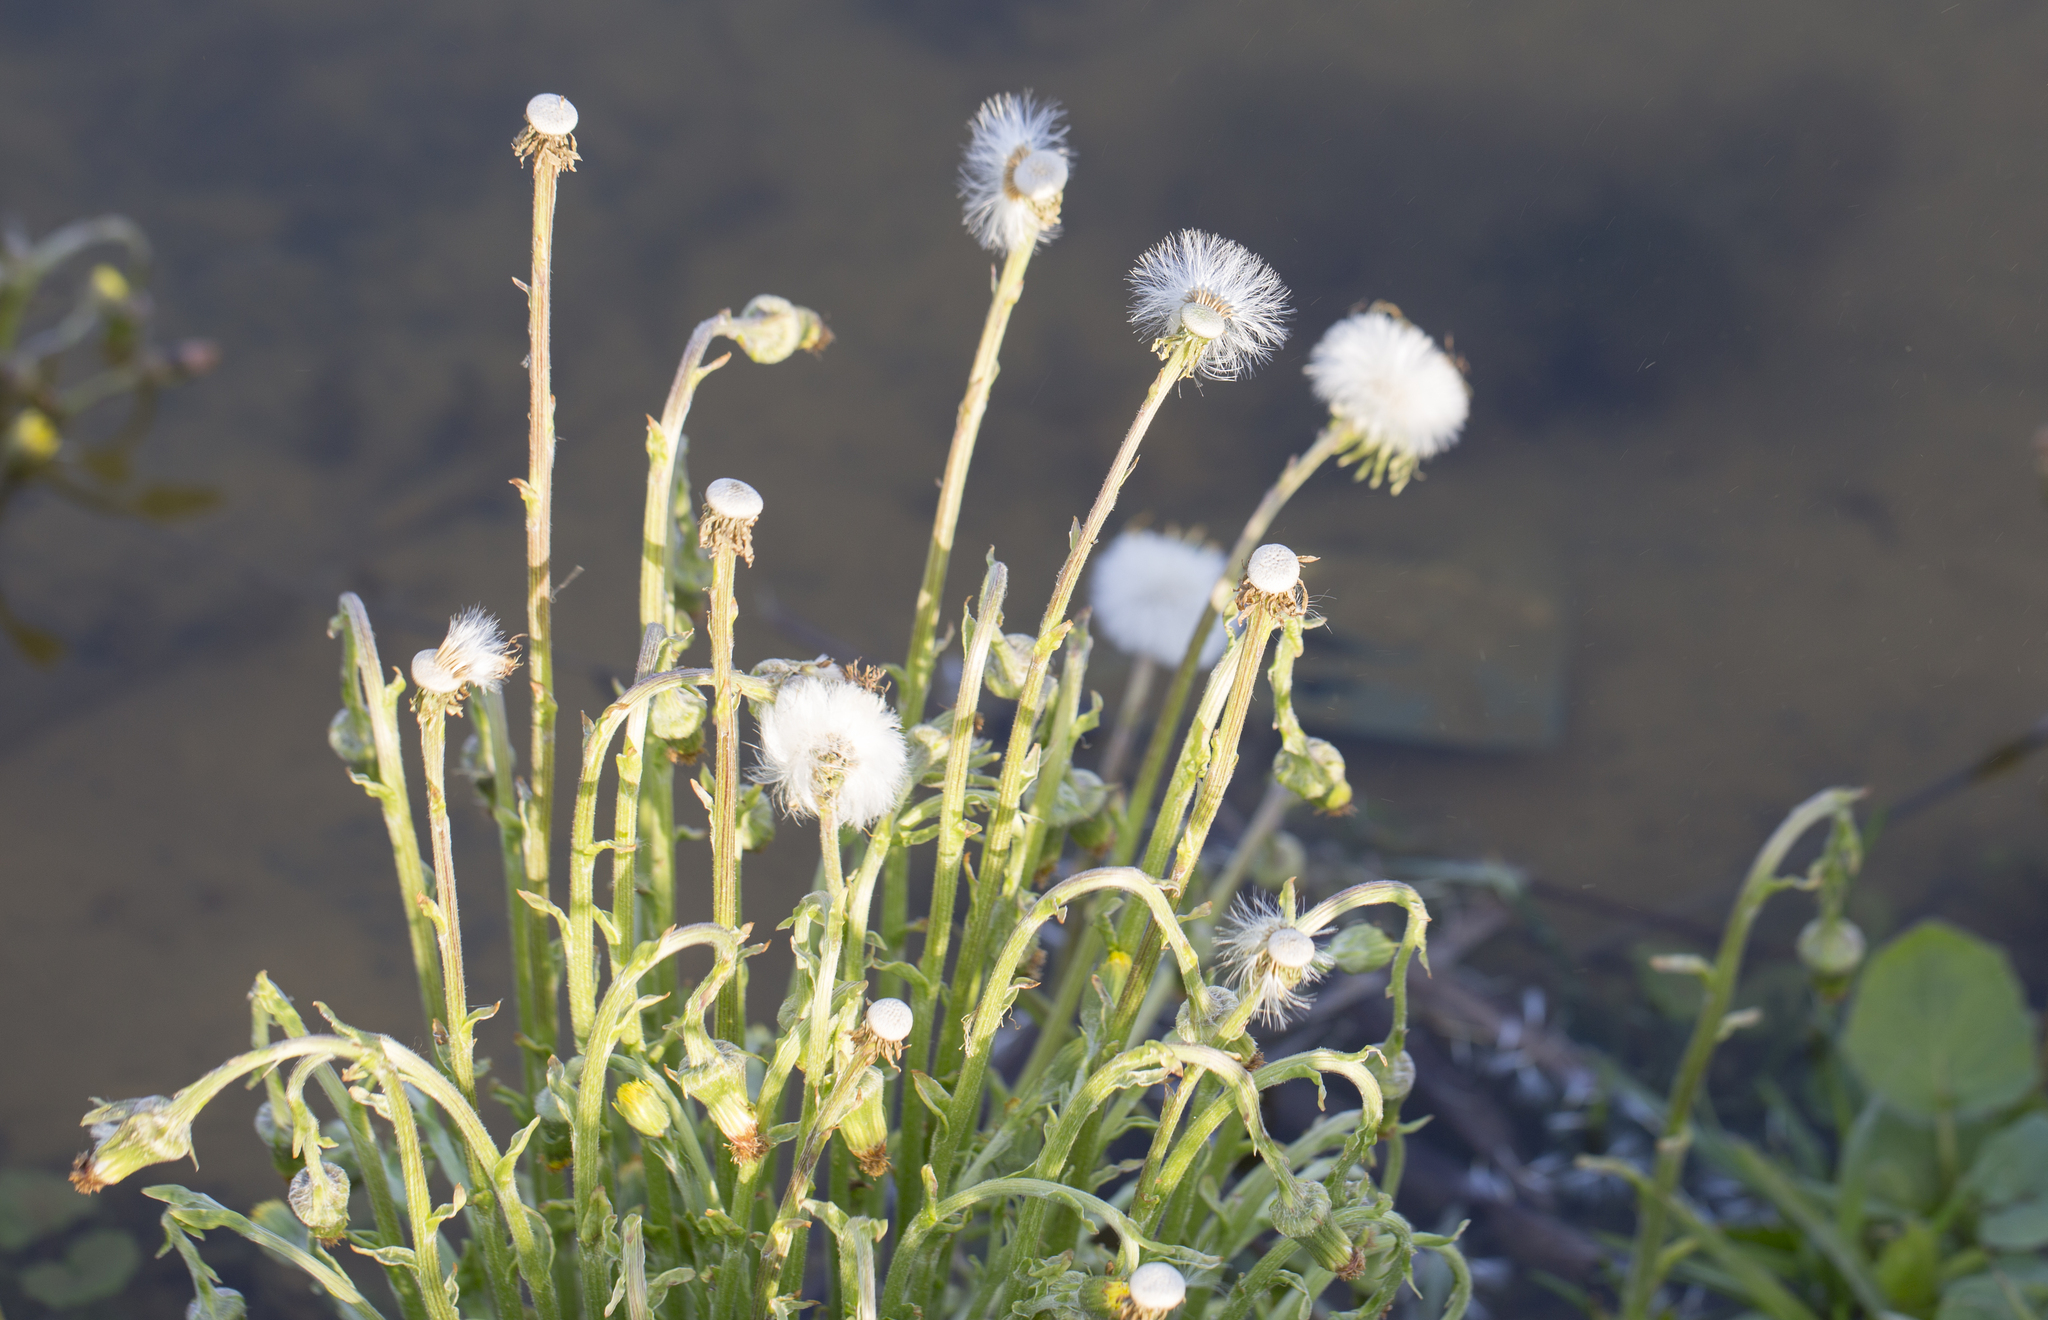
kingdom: Plantae
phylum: Tracheophyta
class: Magnoliopsida
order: Asterales
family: Asteraceae
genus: Tussilago
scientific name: Tussilago farfara
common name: Coltsfoot
